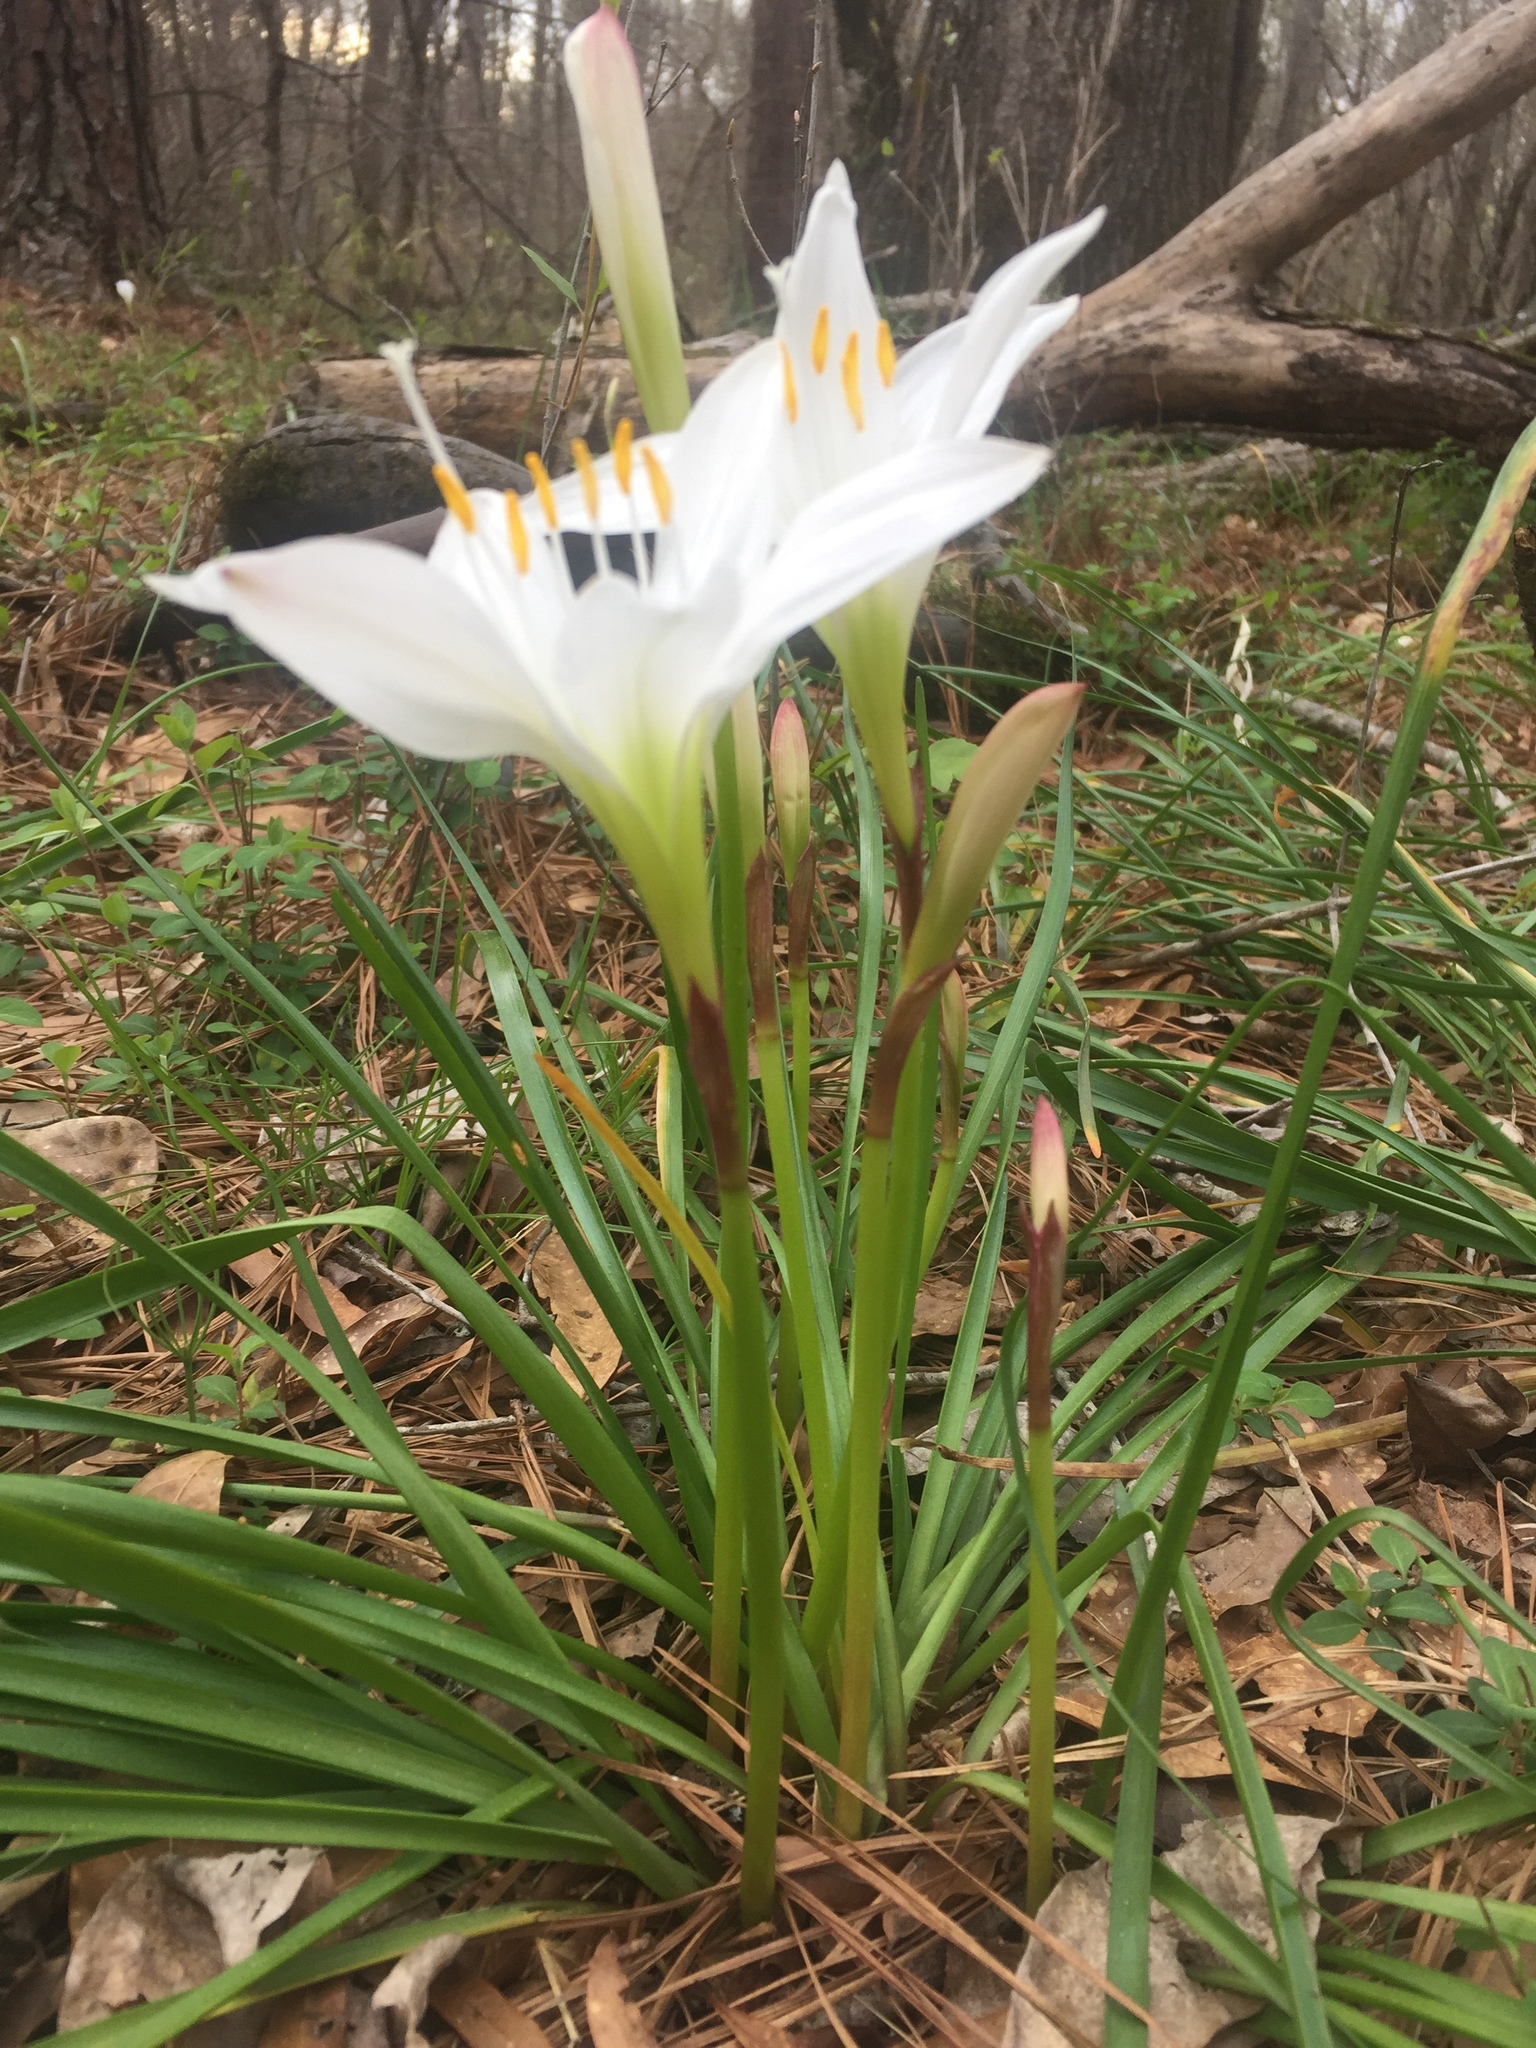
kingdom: Plantae
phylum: Tracheophyta
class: Liliopsida
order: Asparagales
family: Amaryllidaceae
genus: Zephyranthes
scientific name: Zephyranthes atamasco
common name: Atamasco lily
